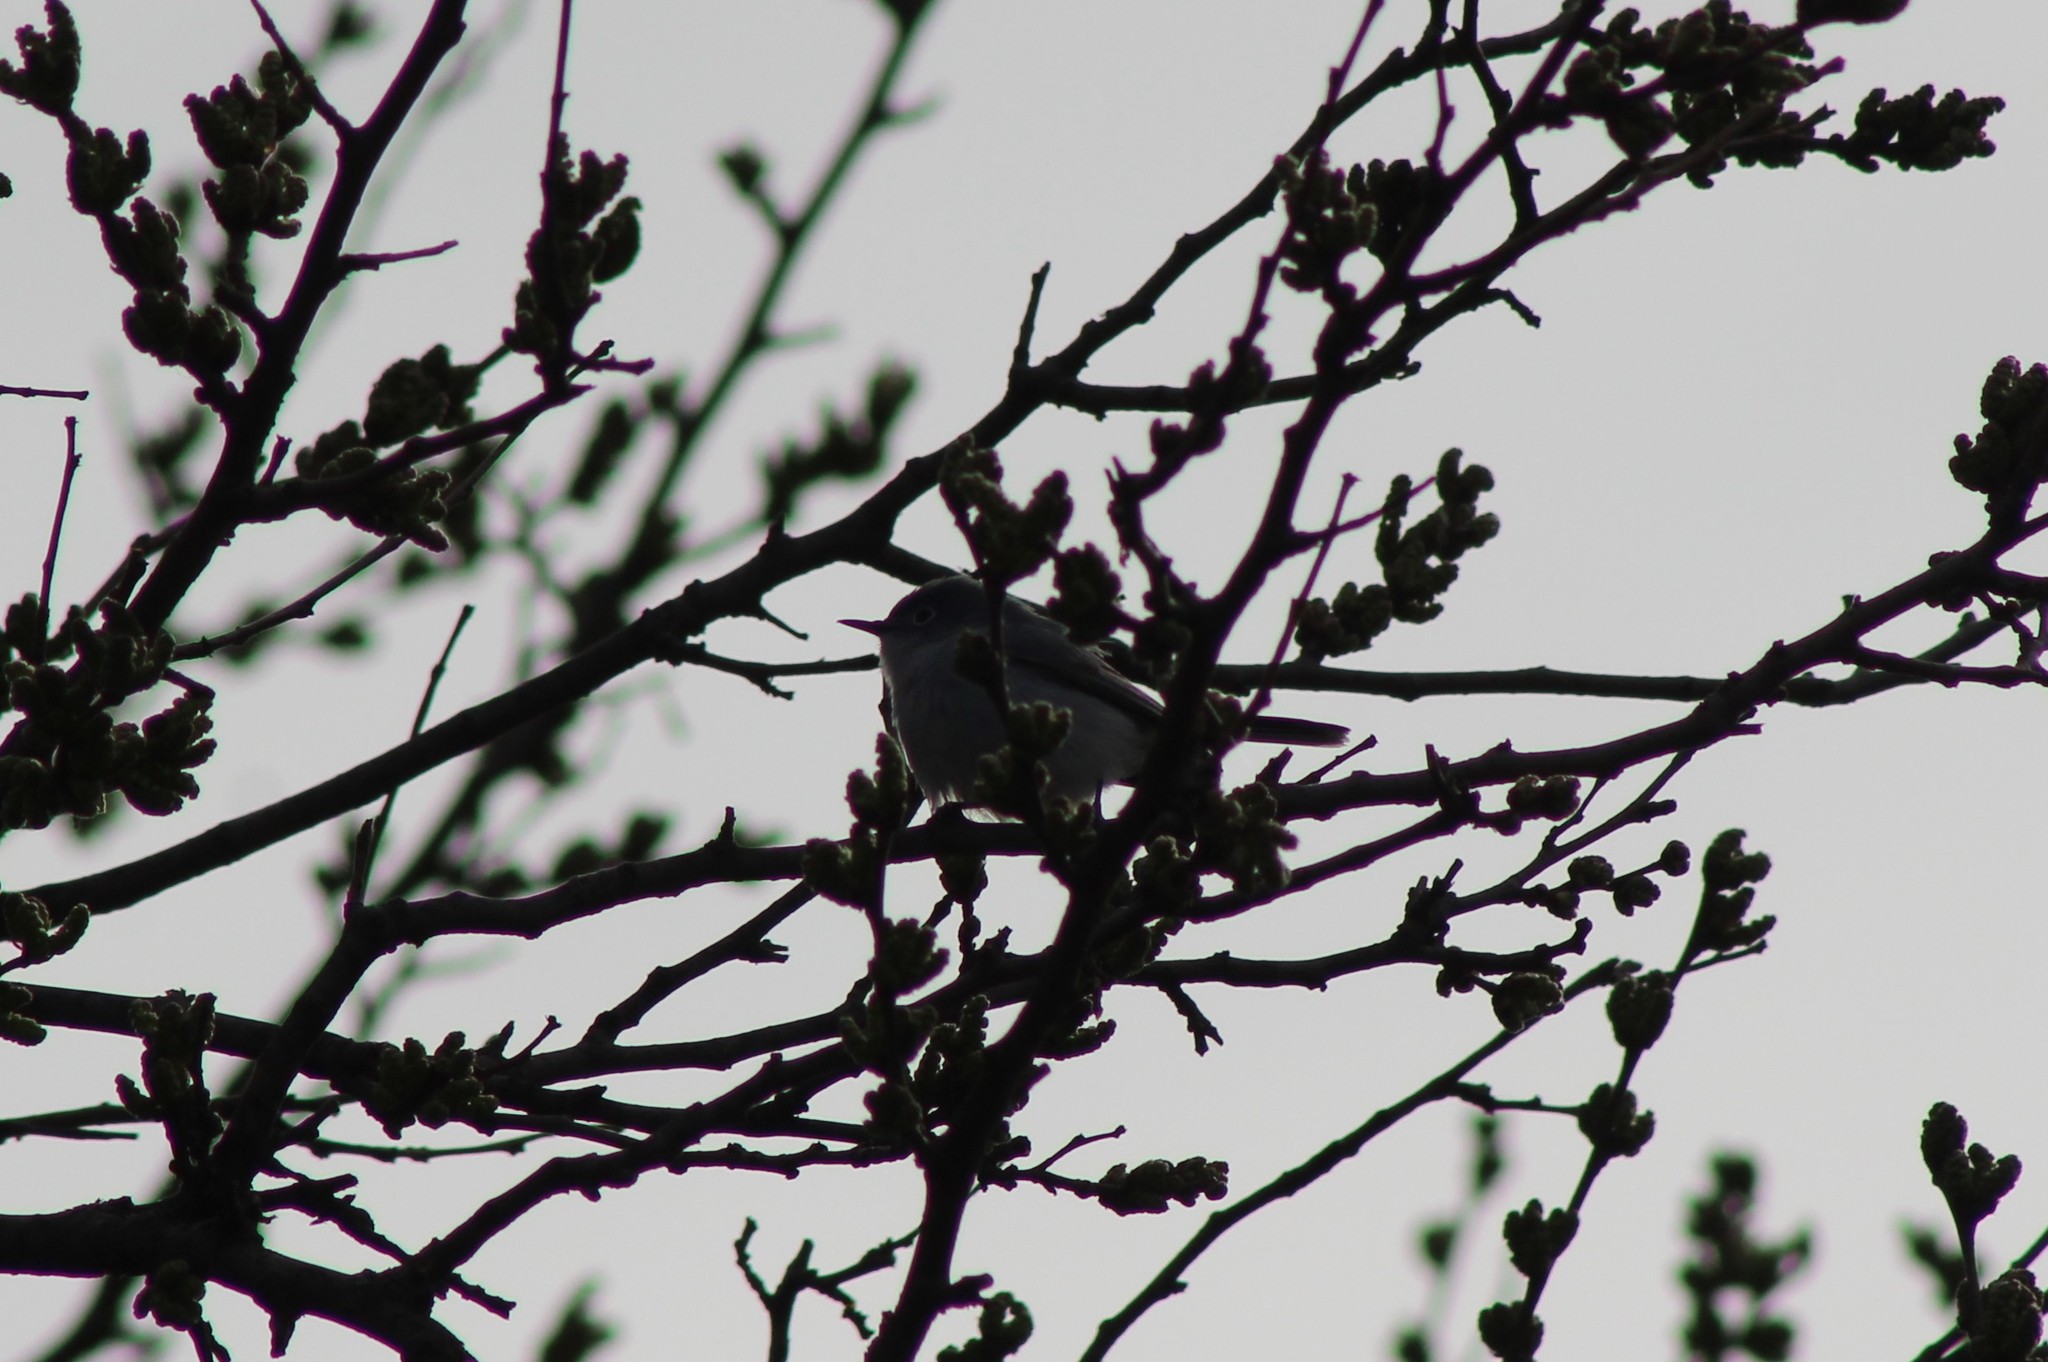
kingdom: Animalia
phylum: Chordata
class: Aves
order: Passeriformes
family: Polioptilidae
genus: Polioptila
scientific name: Polioptila caerulea
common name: Blue-gray gnatcatcher
